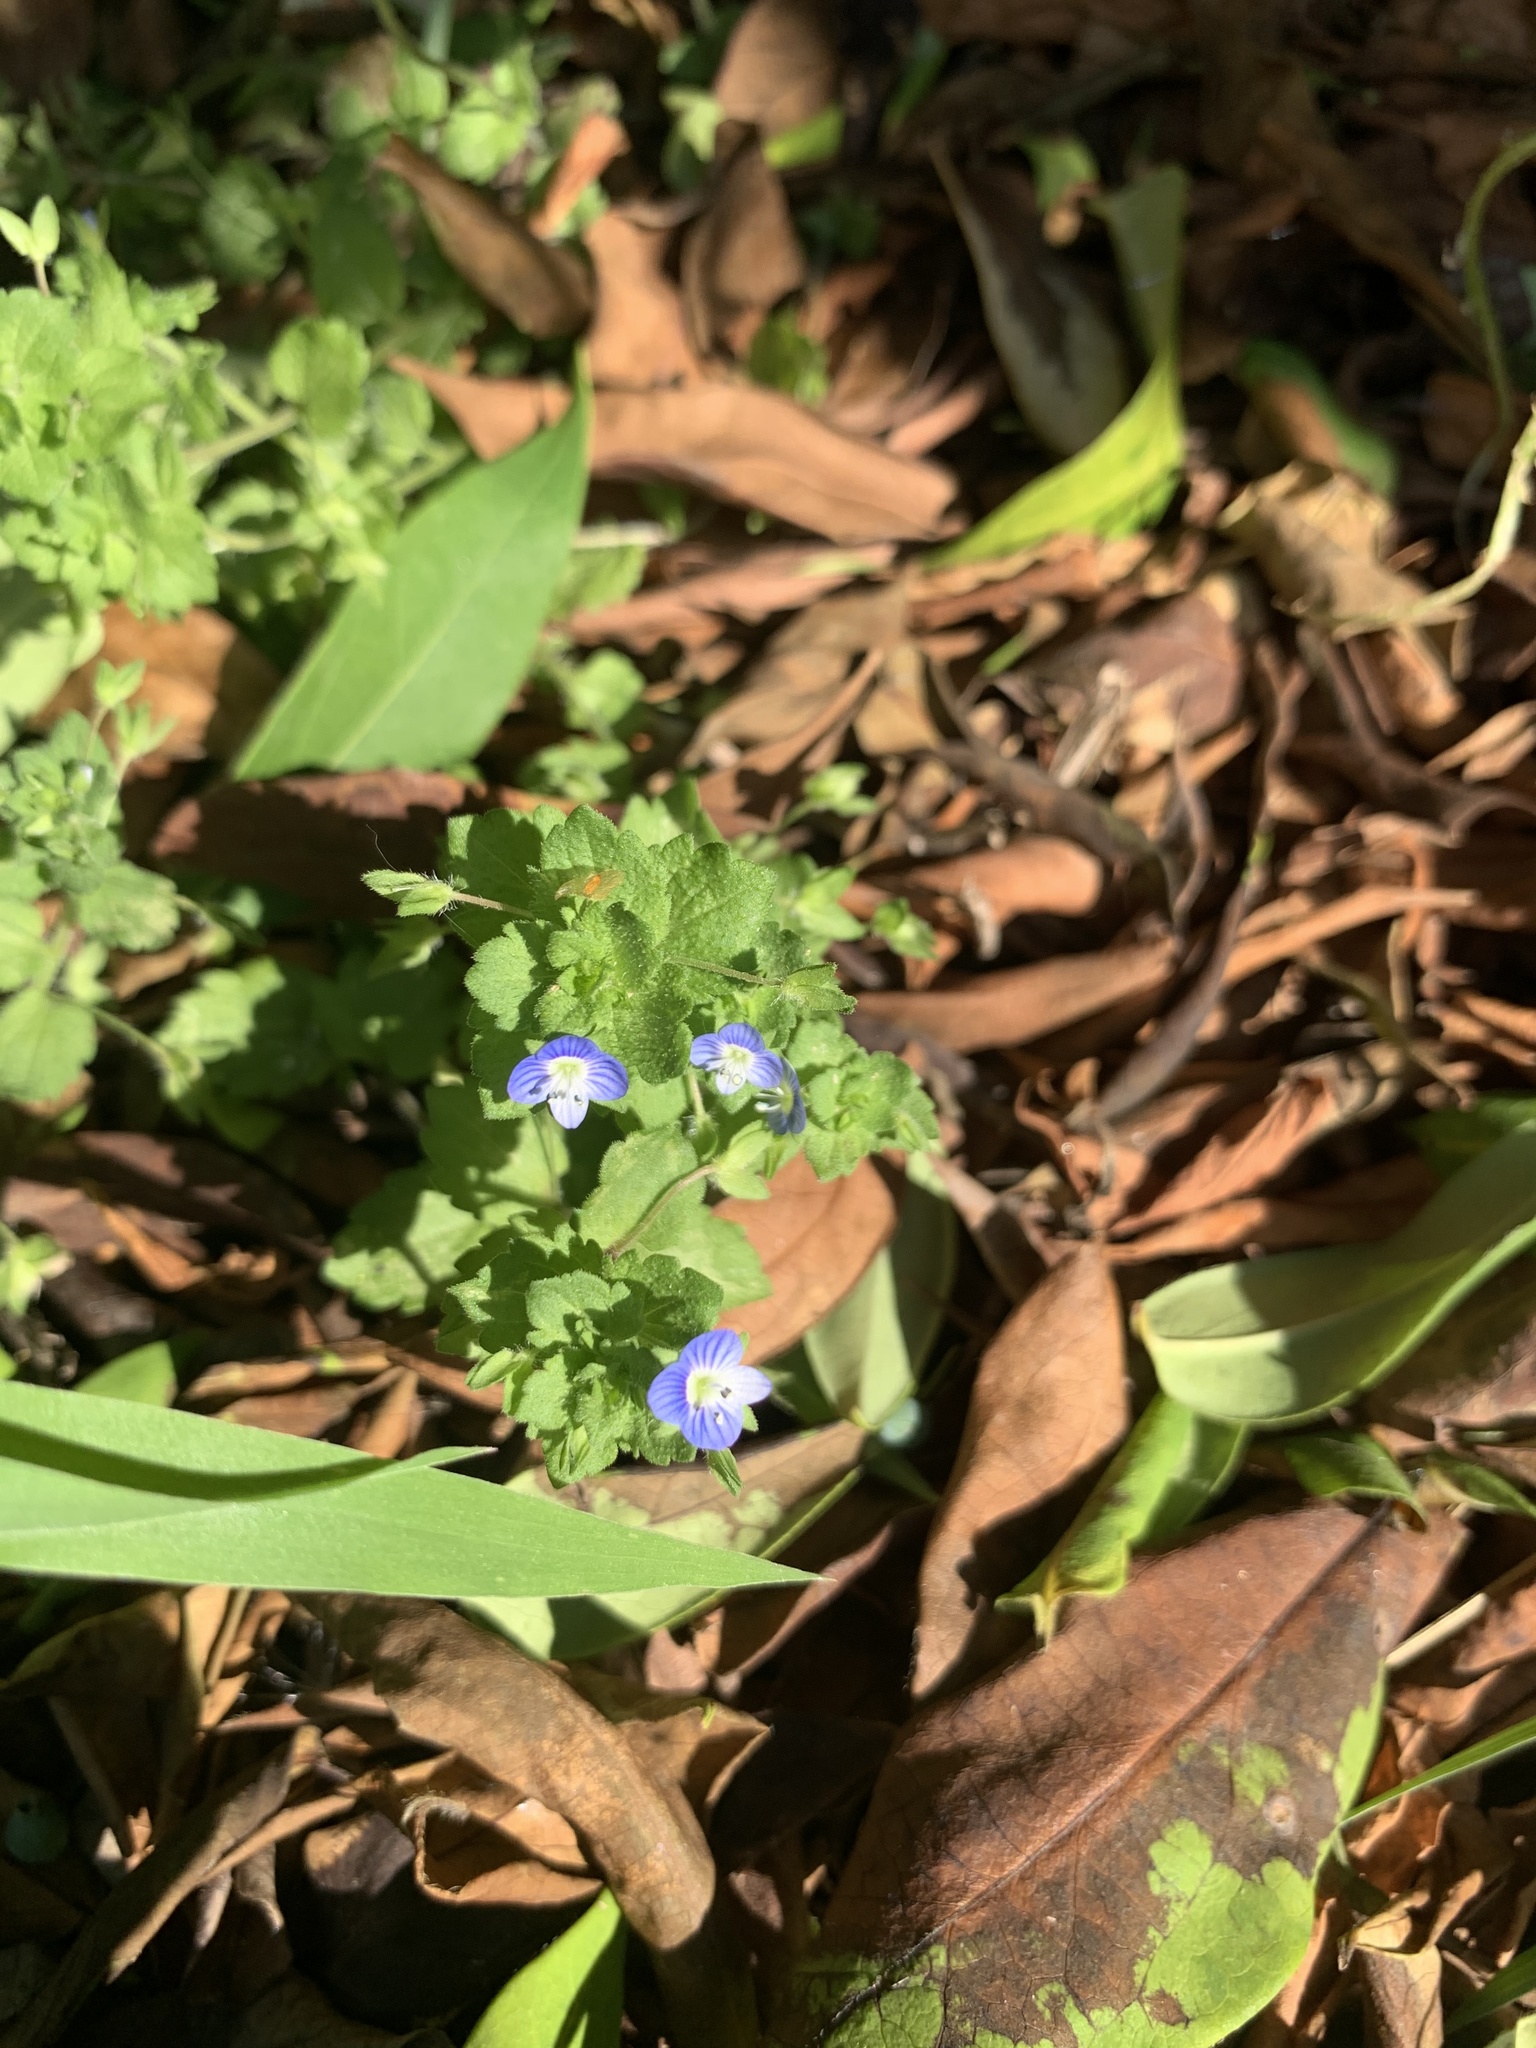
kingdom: Plantae
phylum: Tracheophyta
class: Magnoliopsida
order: Lamiales
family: Plantaginaceae
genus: Veronica
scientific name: Veronica persica
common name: Common field-speedwell
